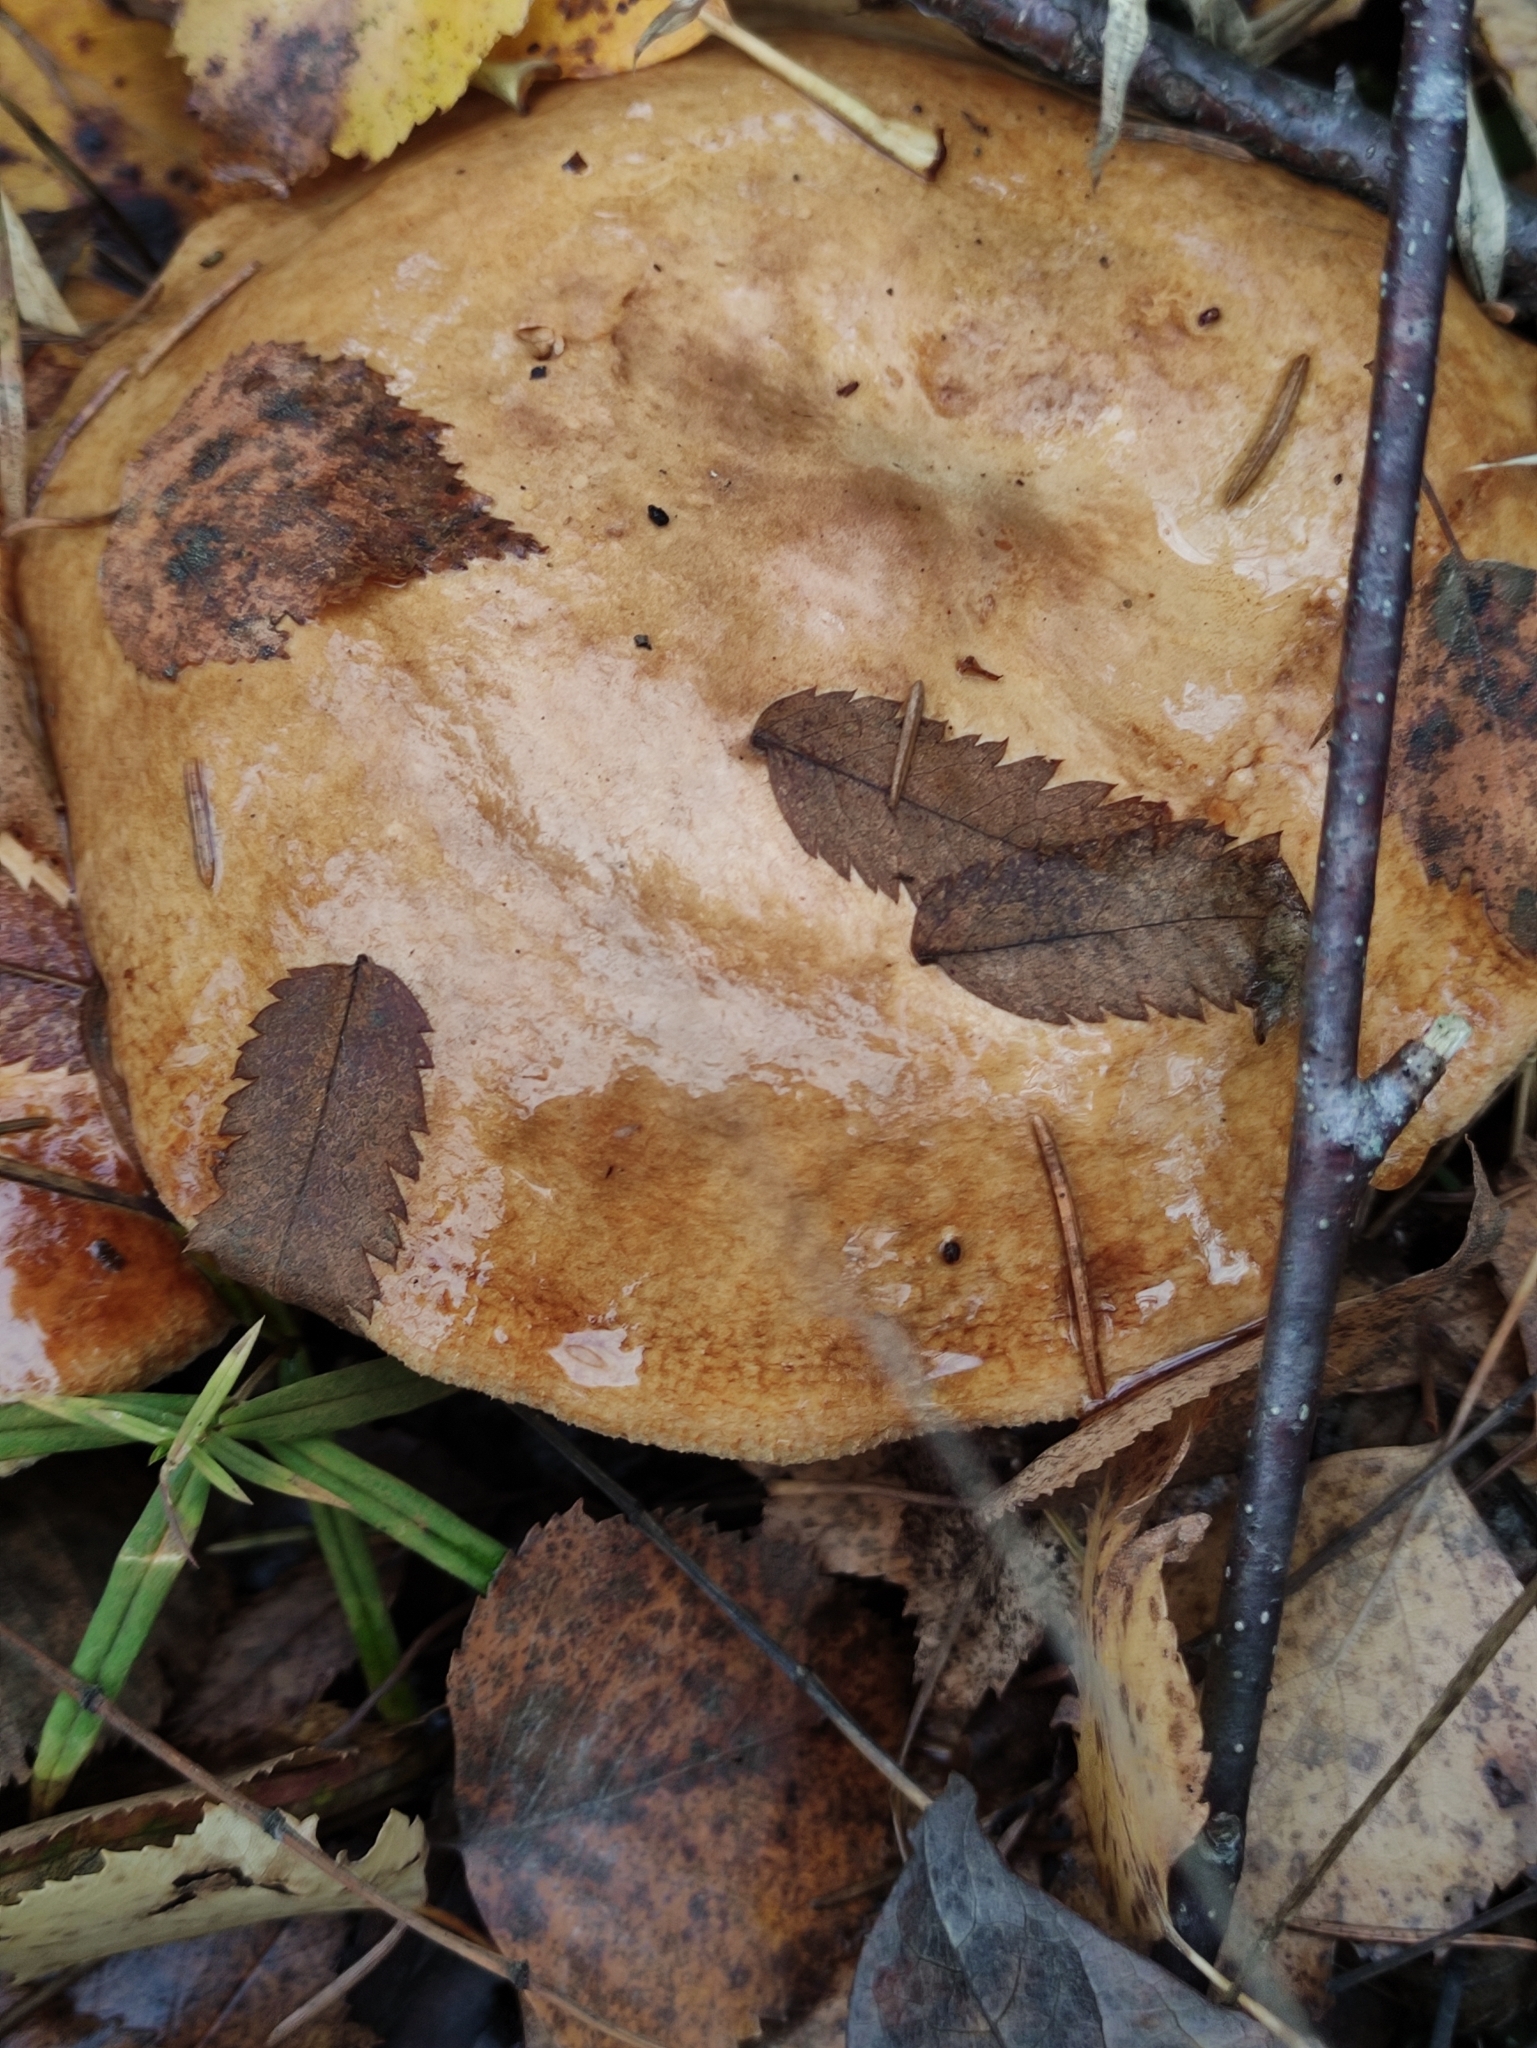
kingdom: Fungi
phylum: Basidiomycota
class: Agaricomycetes
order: Boletales
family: Paxillaceae
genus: Paxillus
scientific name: Paxillus involutus
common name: Brown roll rim
